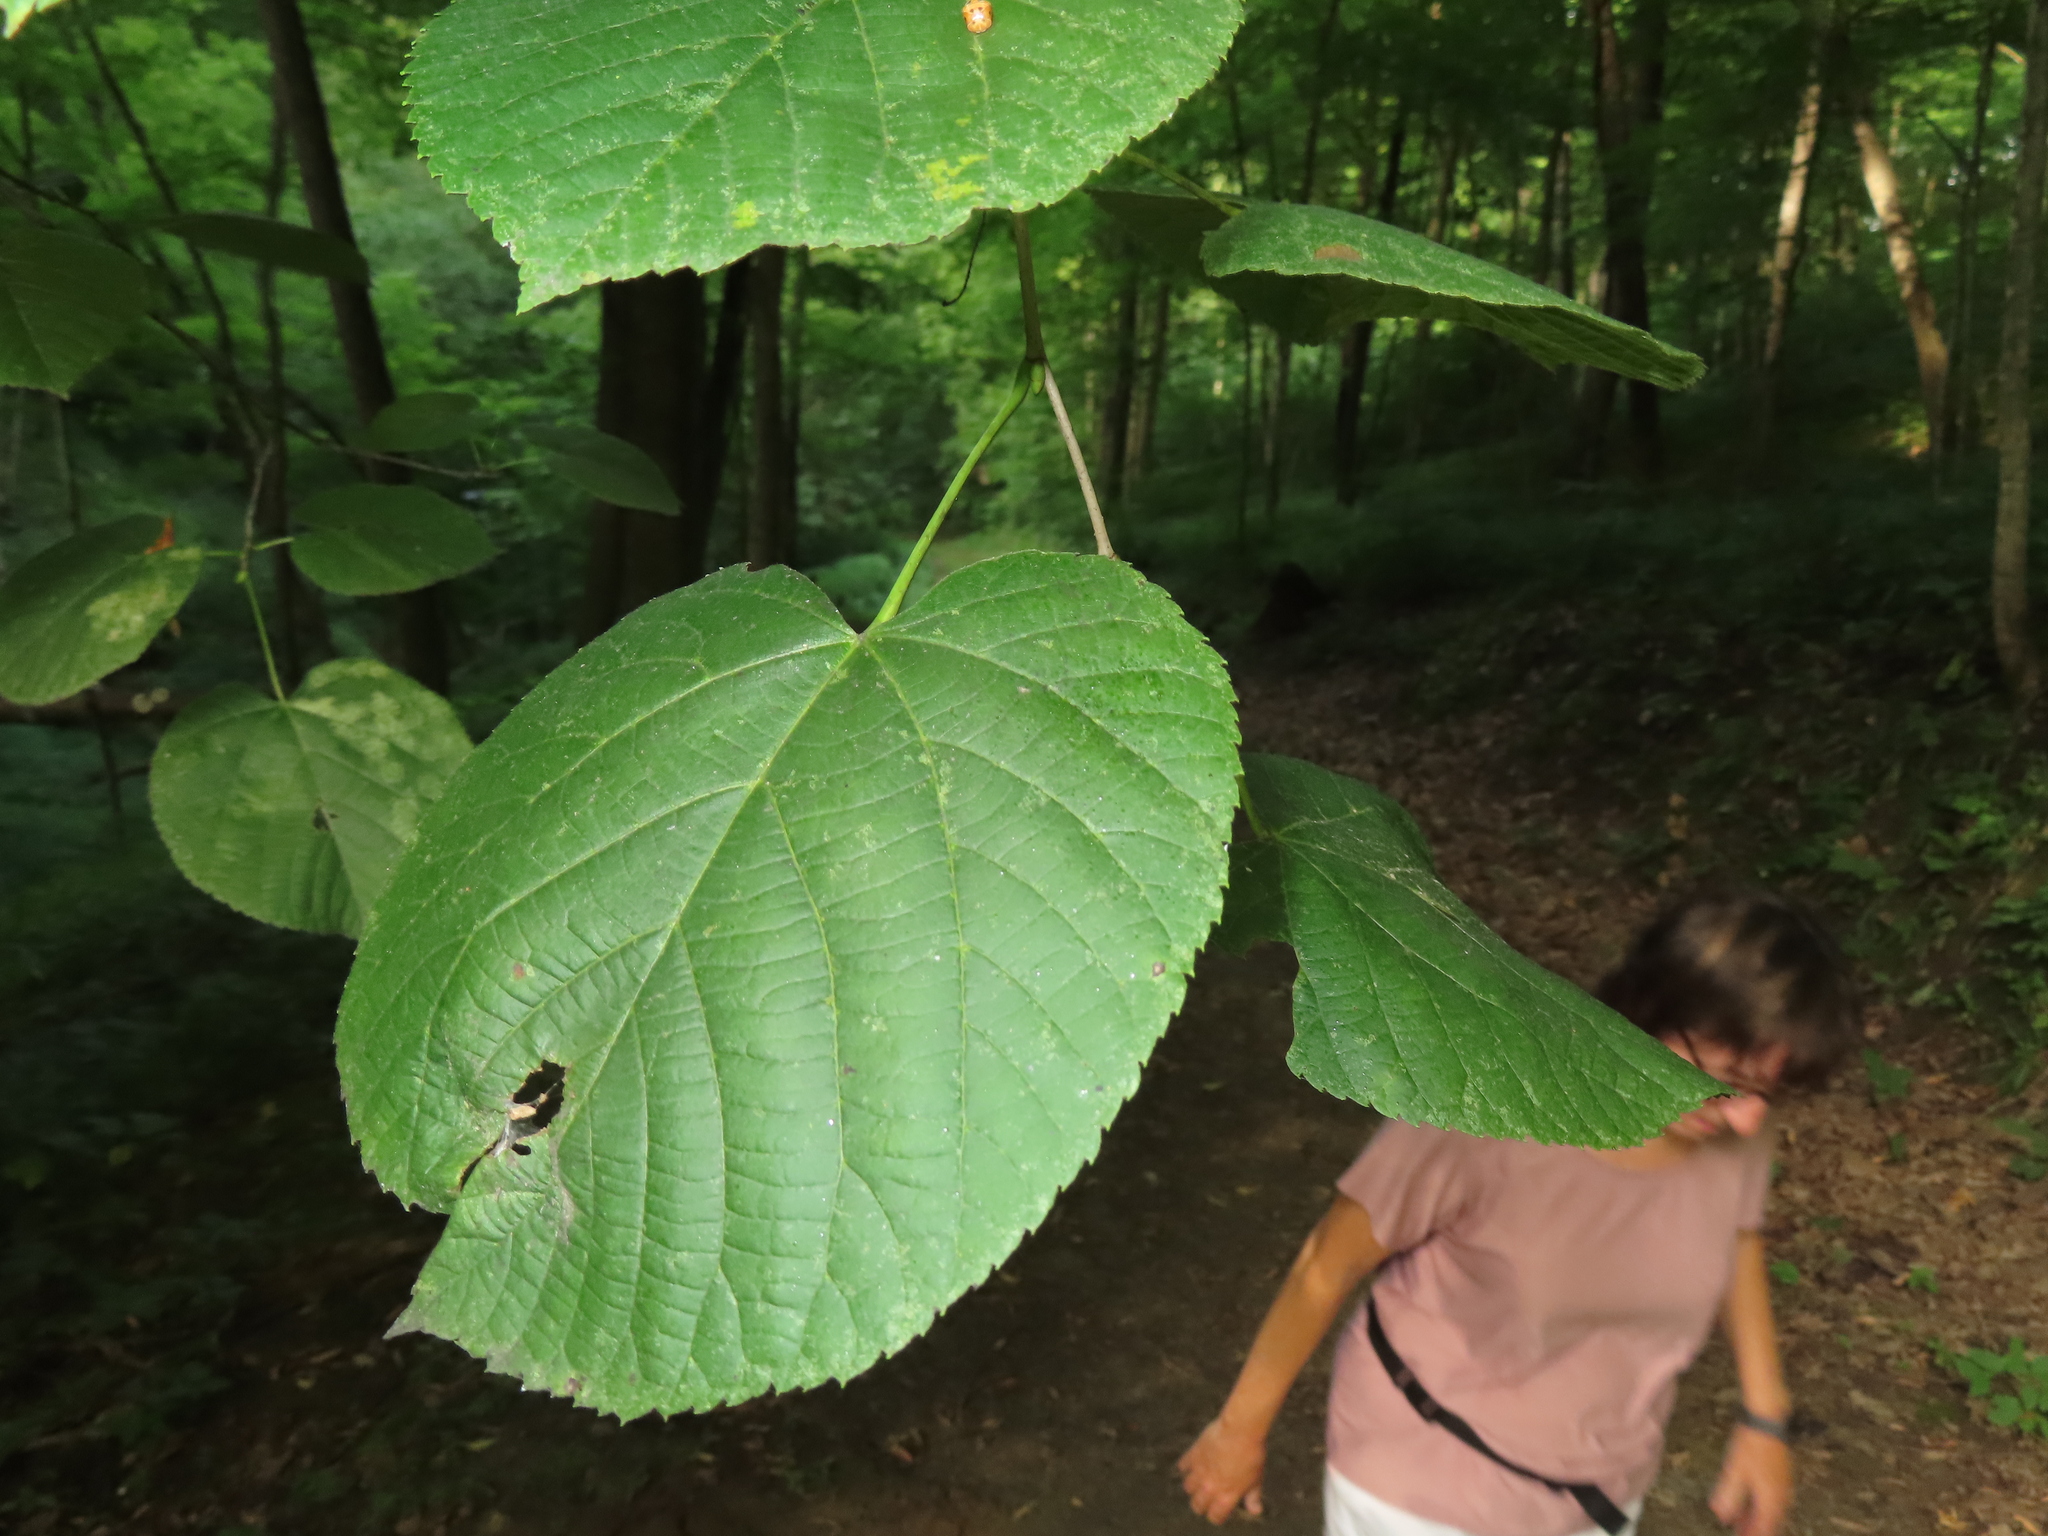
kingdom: Plantae
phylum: Tracheophyta
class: Magnoliopsida
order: Malvales
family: Malvaceae
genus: Tilia
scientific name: Tilia americana
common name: Basswood
